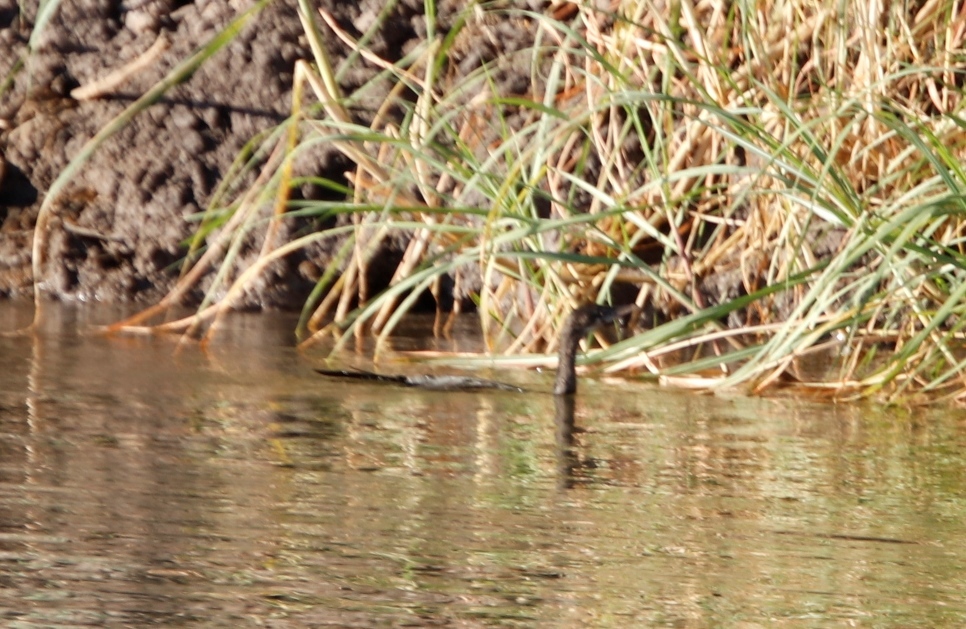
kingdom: Animalia
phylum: Chordata
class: Aves
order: Suliformes
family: Phalacrocoracidae
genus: Microcarbo
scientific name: Microcarbo africanus
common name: Long-tailed cormorant
